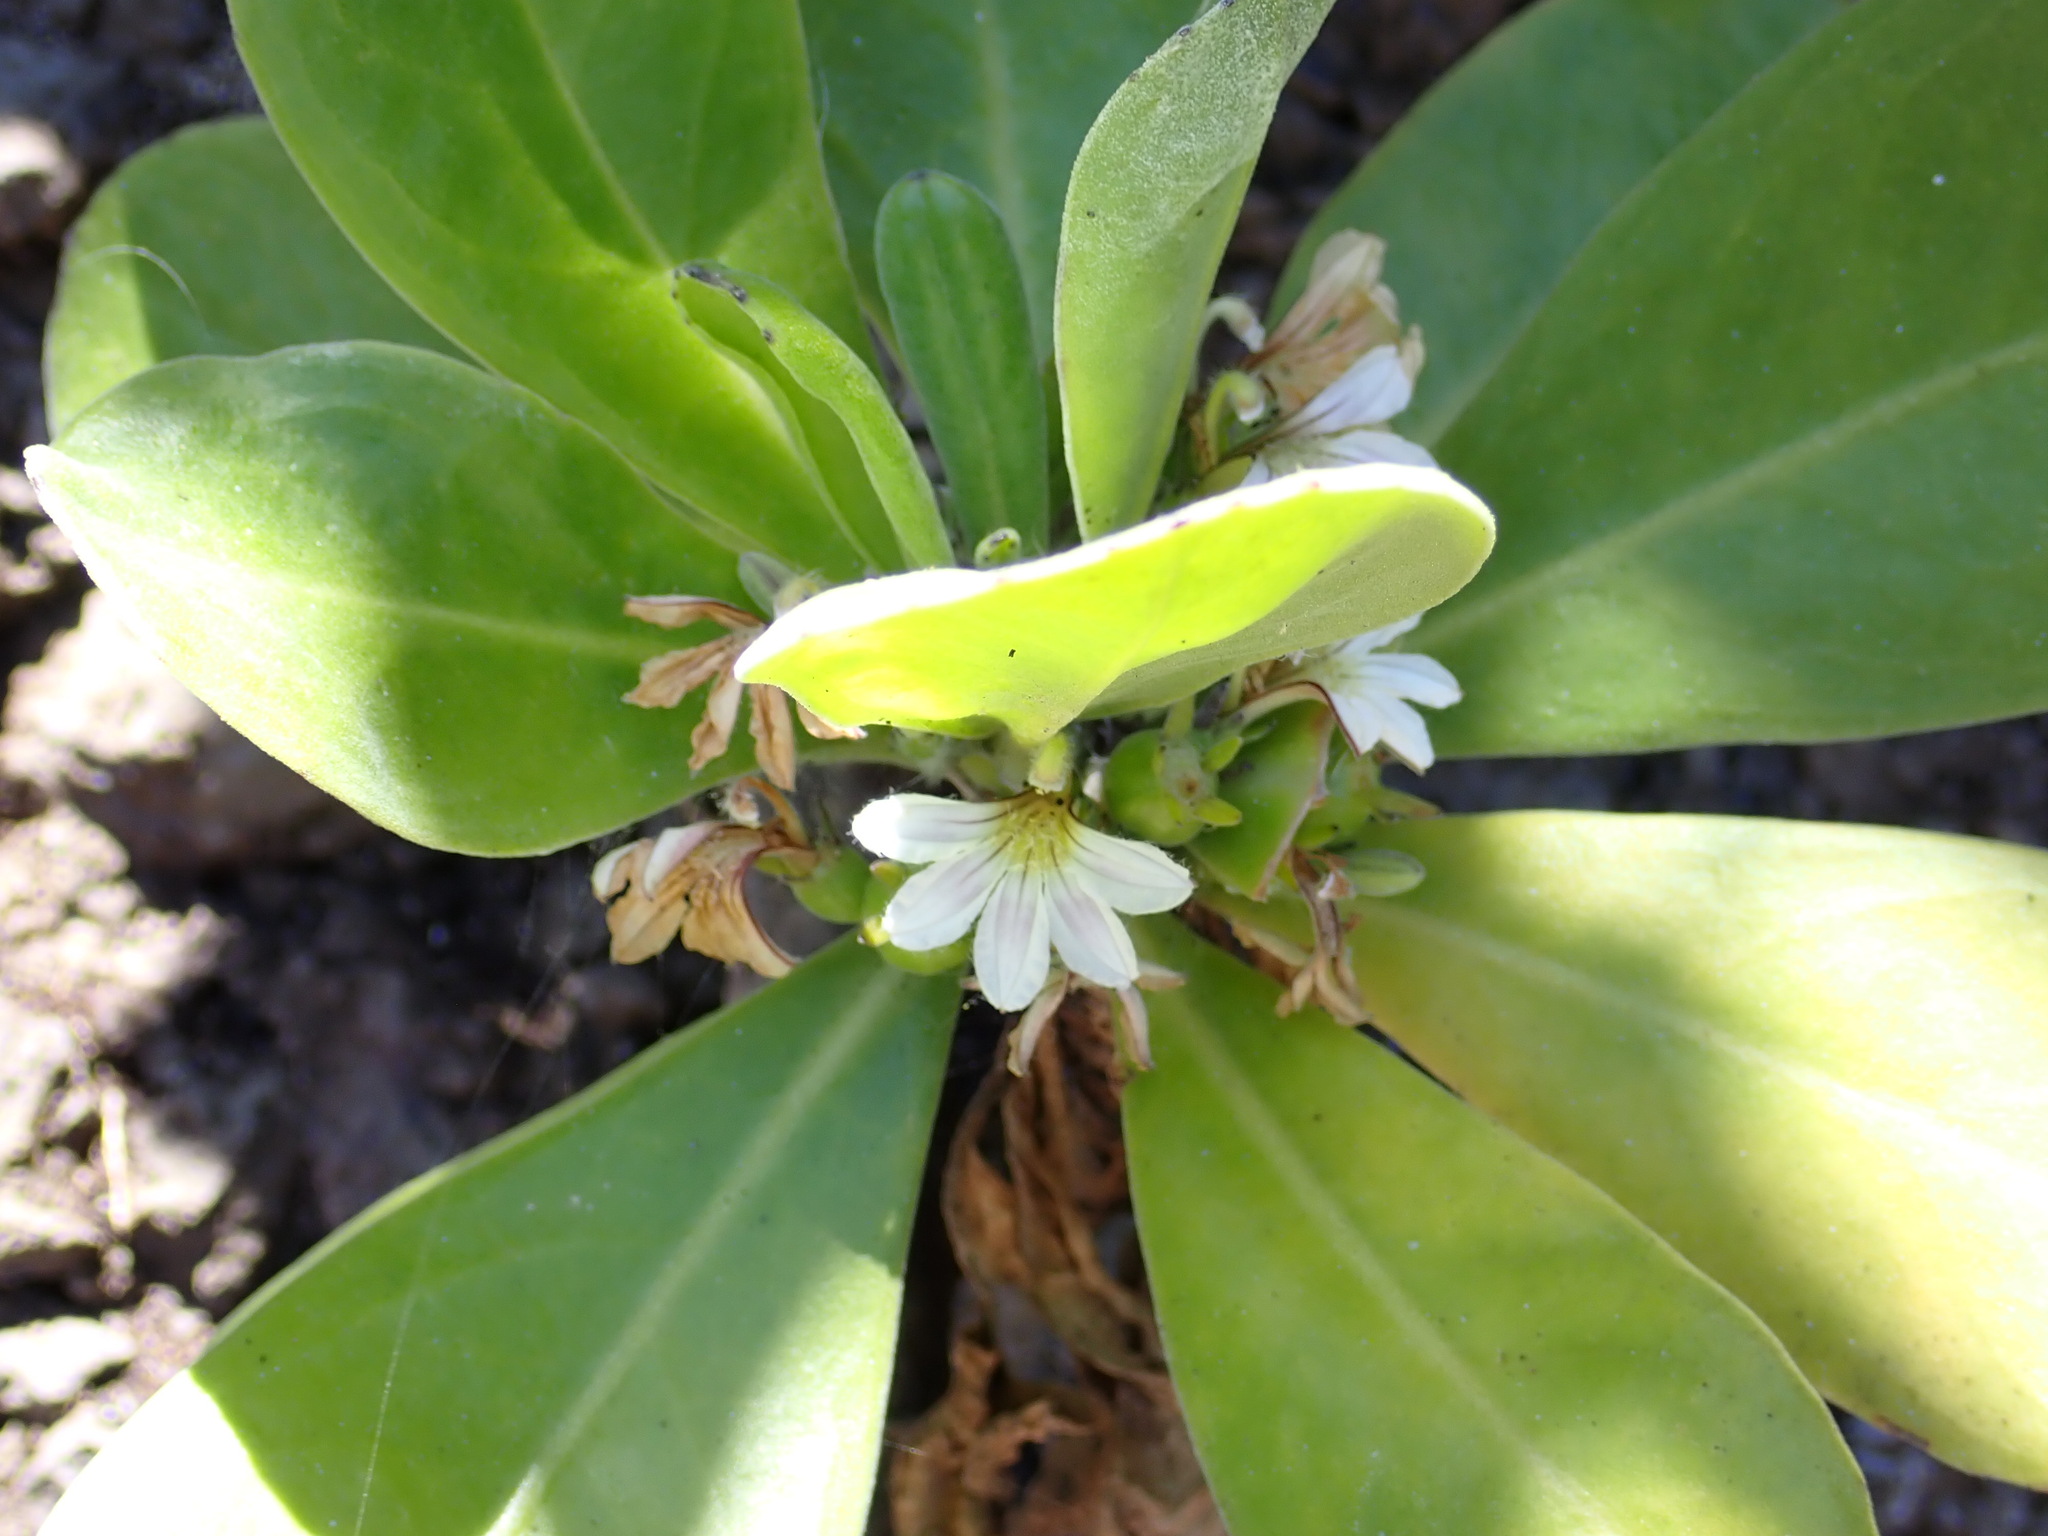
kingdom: Plantae
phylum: Tracheophyta
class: Magnoliopsida
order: Asterales
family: Goodeniaceae
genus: Scaevola
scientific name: Scaevola taccada
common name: Sea lettucetree
